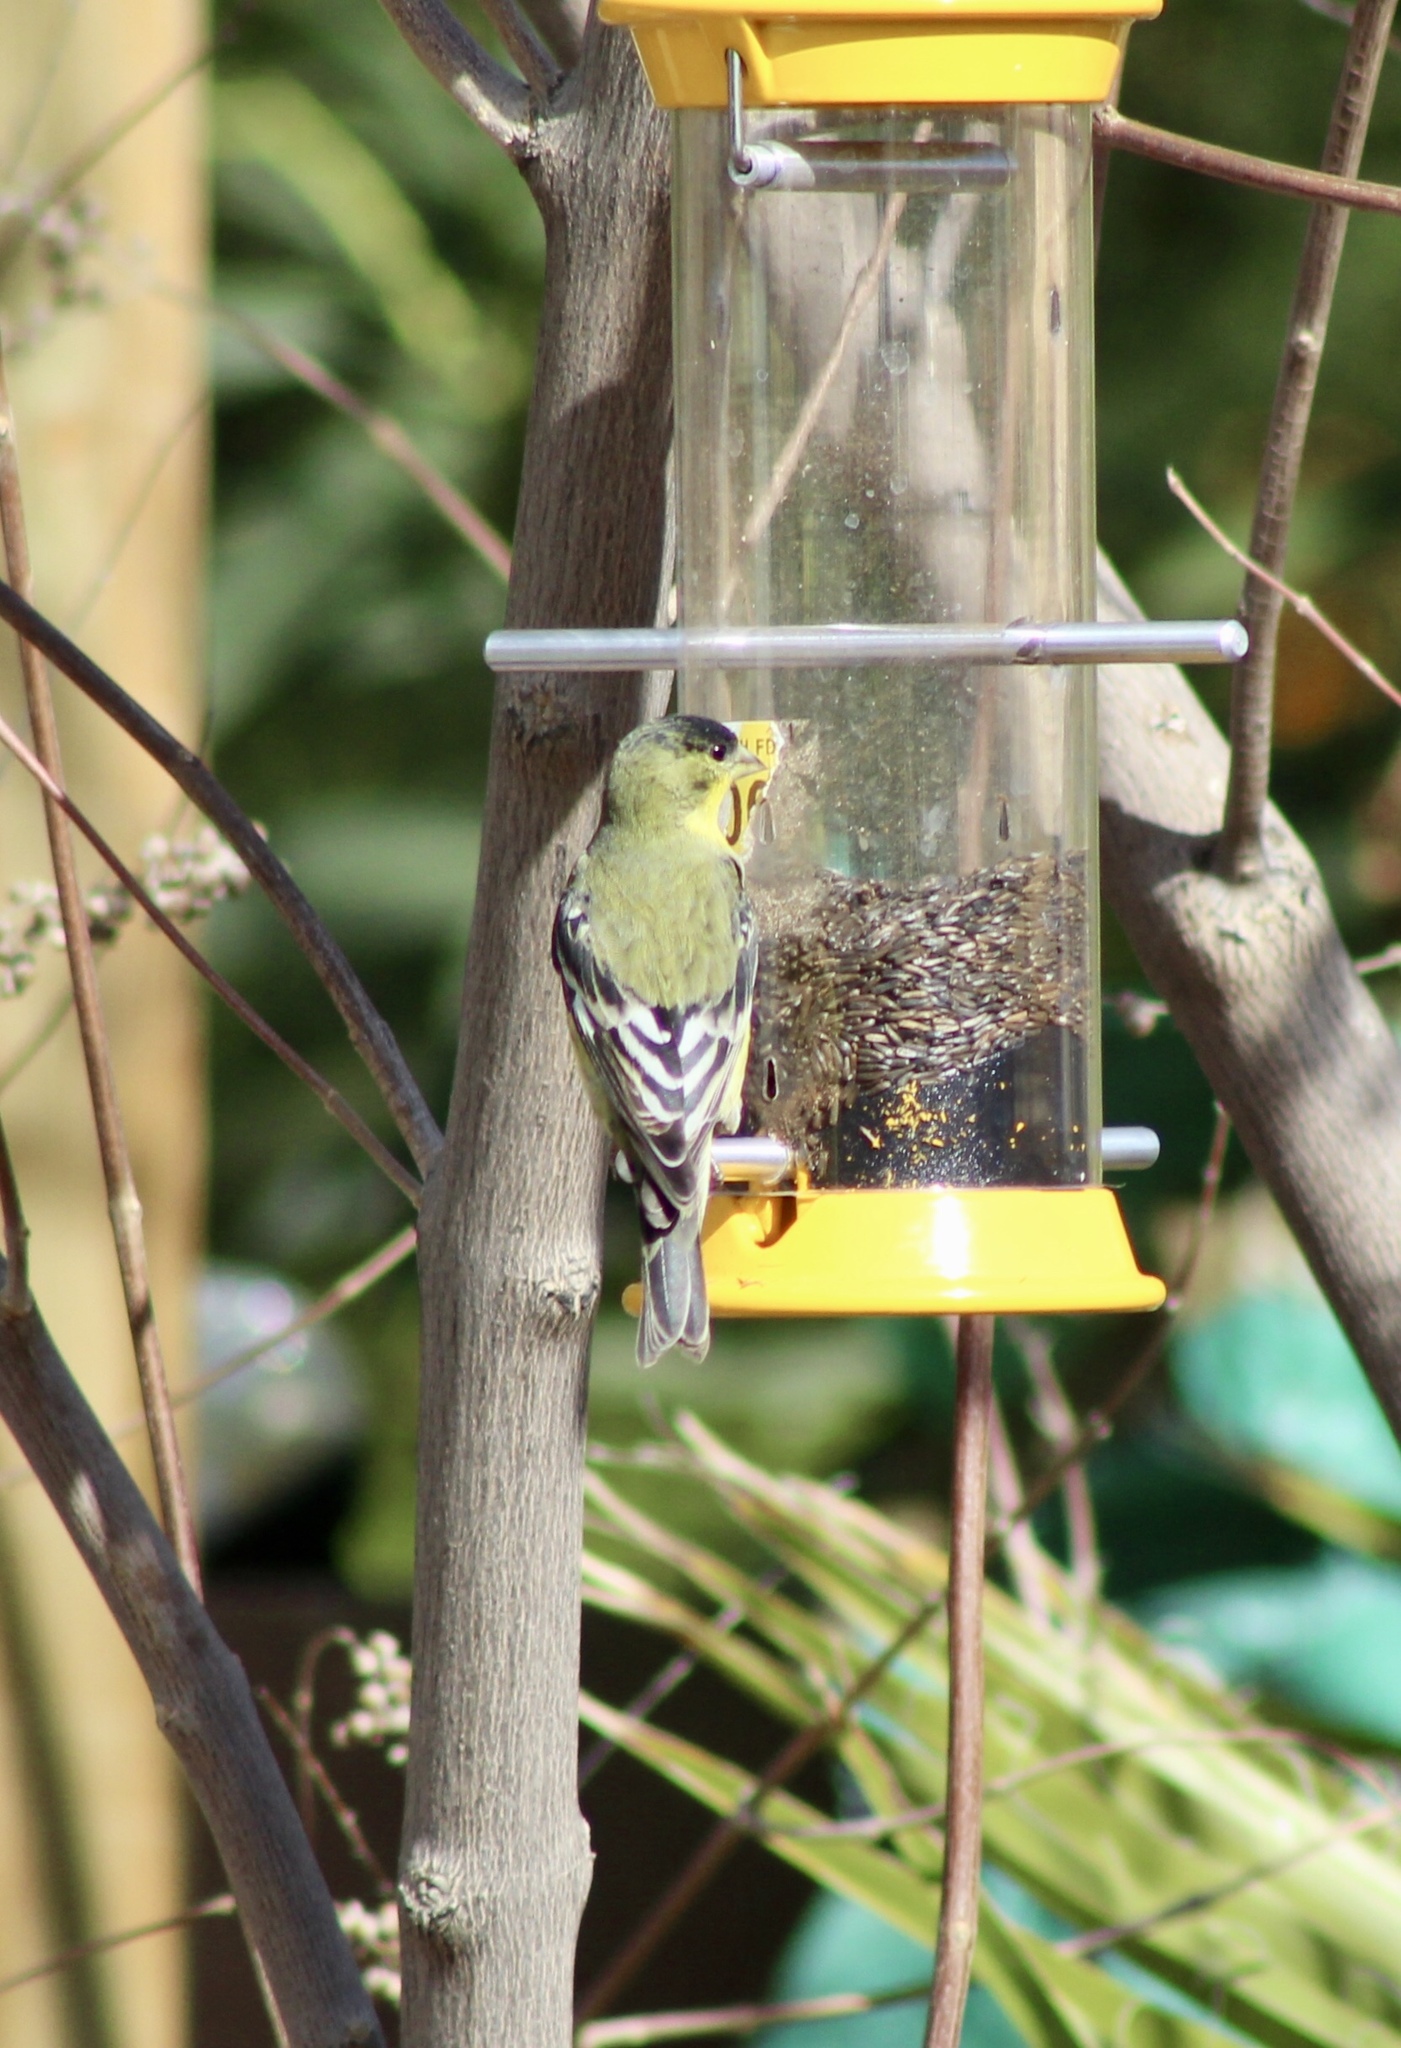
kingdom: Animalia
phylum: Chordata
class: Aves
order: Passeriformes
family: Fringillidae
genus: Spinus
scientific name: Spinus psaltria
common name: Lesser goldfinch
